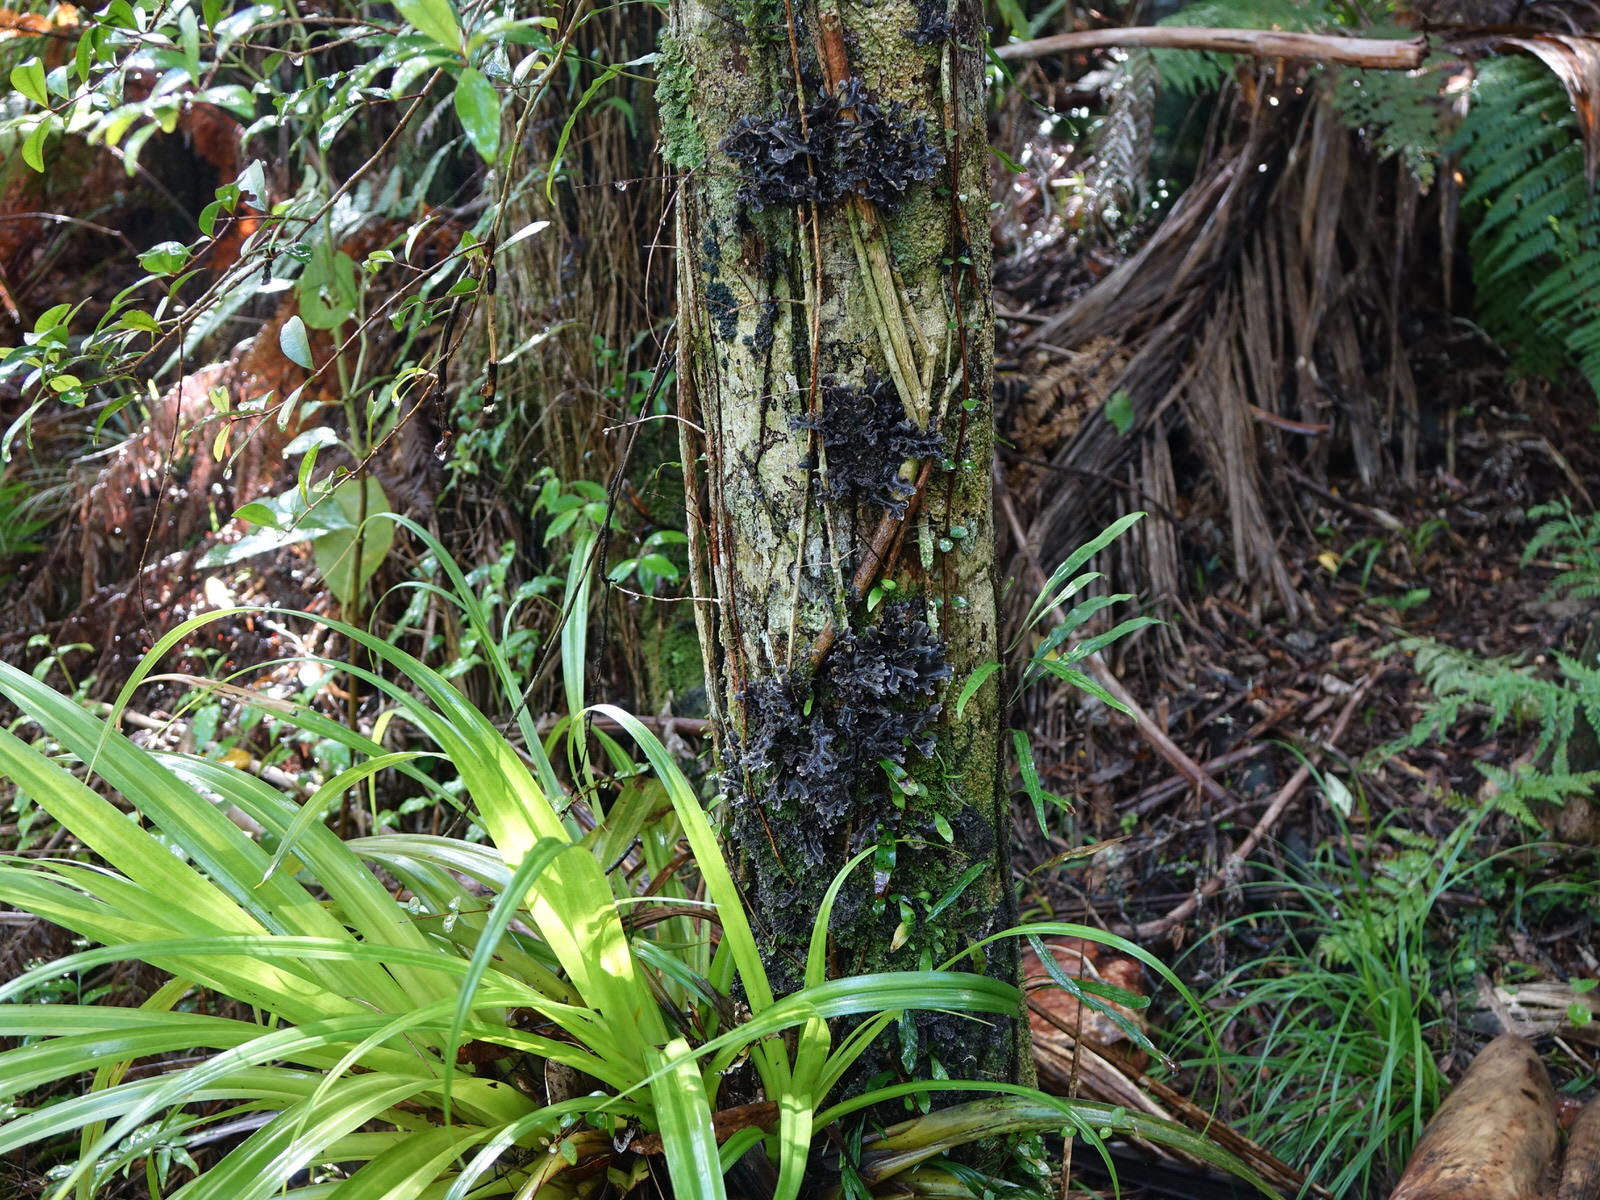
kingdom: Fungi
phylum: Ascomycota
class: Lecanoromycetes
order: Peltigerales
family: Lobariaceae
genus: Pseudocyphellaria
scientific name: Pseudocyphellaria dissimilis
